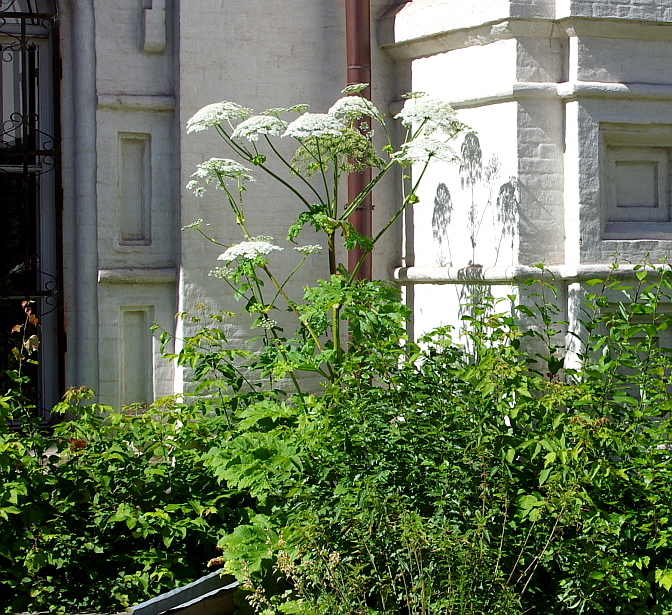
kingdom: Plantae
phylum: Tracheophyta
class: Magnoliopsida
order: Apiales
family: Apiaceae
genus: Heracleum
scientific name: Heracleum sosnowskyi
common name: Sosnowsky's hogweed
